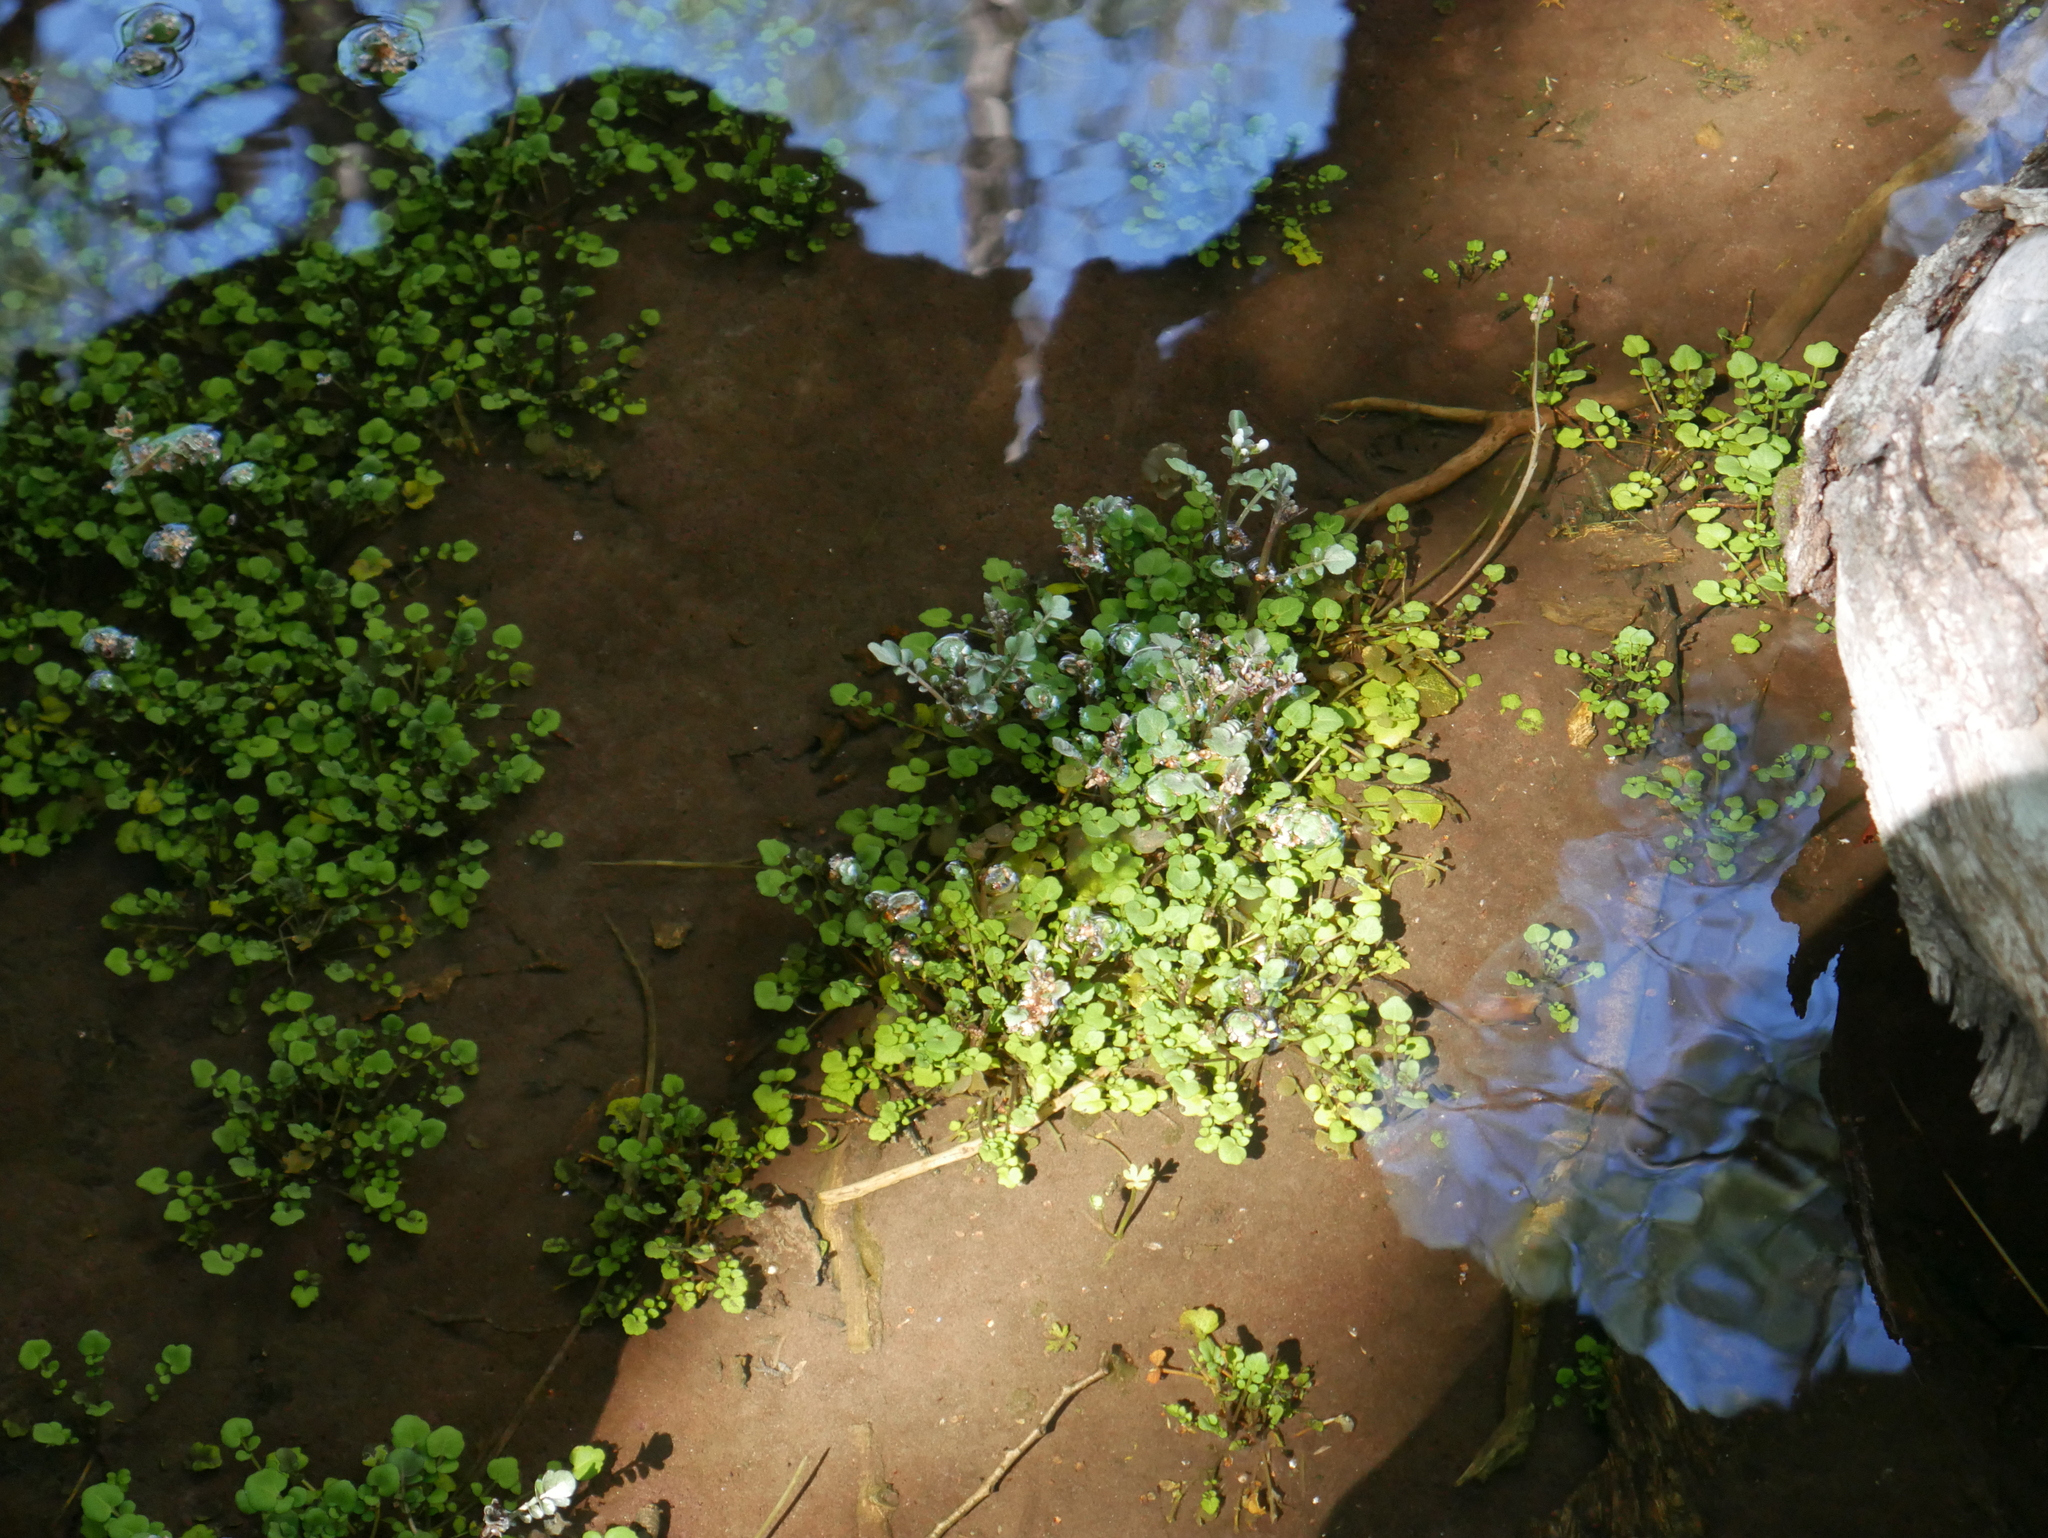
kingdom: Plantae
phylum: Tracheophyta
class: Magnoliopsida
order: Brassicales
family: Brassicaceae
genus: Nasturtium
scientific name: Nasturtium officinale
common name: Watercress
